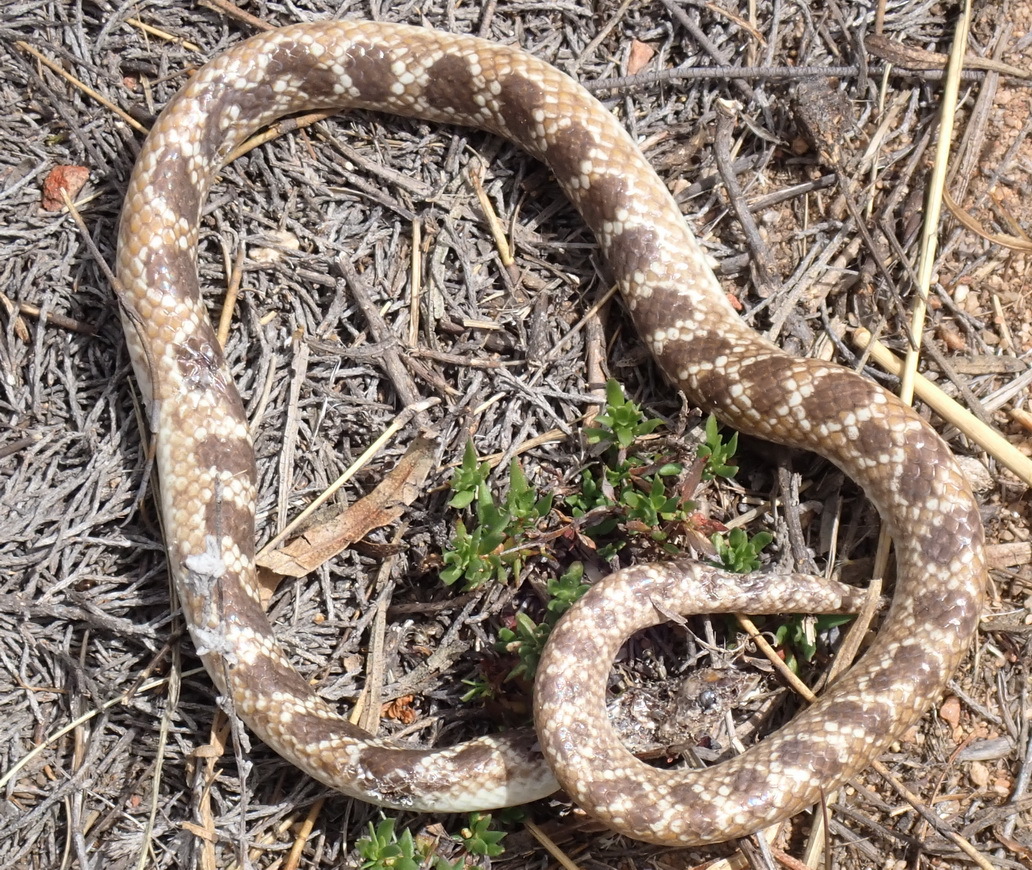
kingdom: Animalia
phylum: Chordata
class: Squamata
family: Prosymnidae
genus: Prosymna
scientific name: Prosymna sundevalli
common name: Sundevall's shovel-snout
